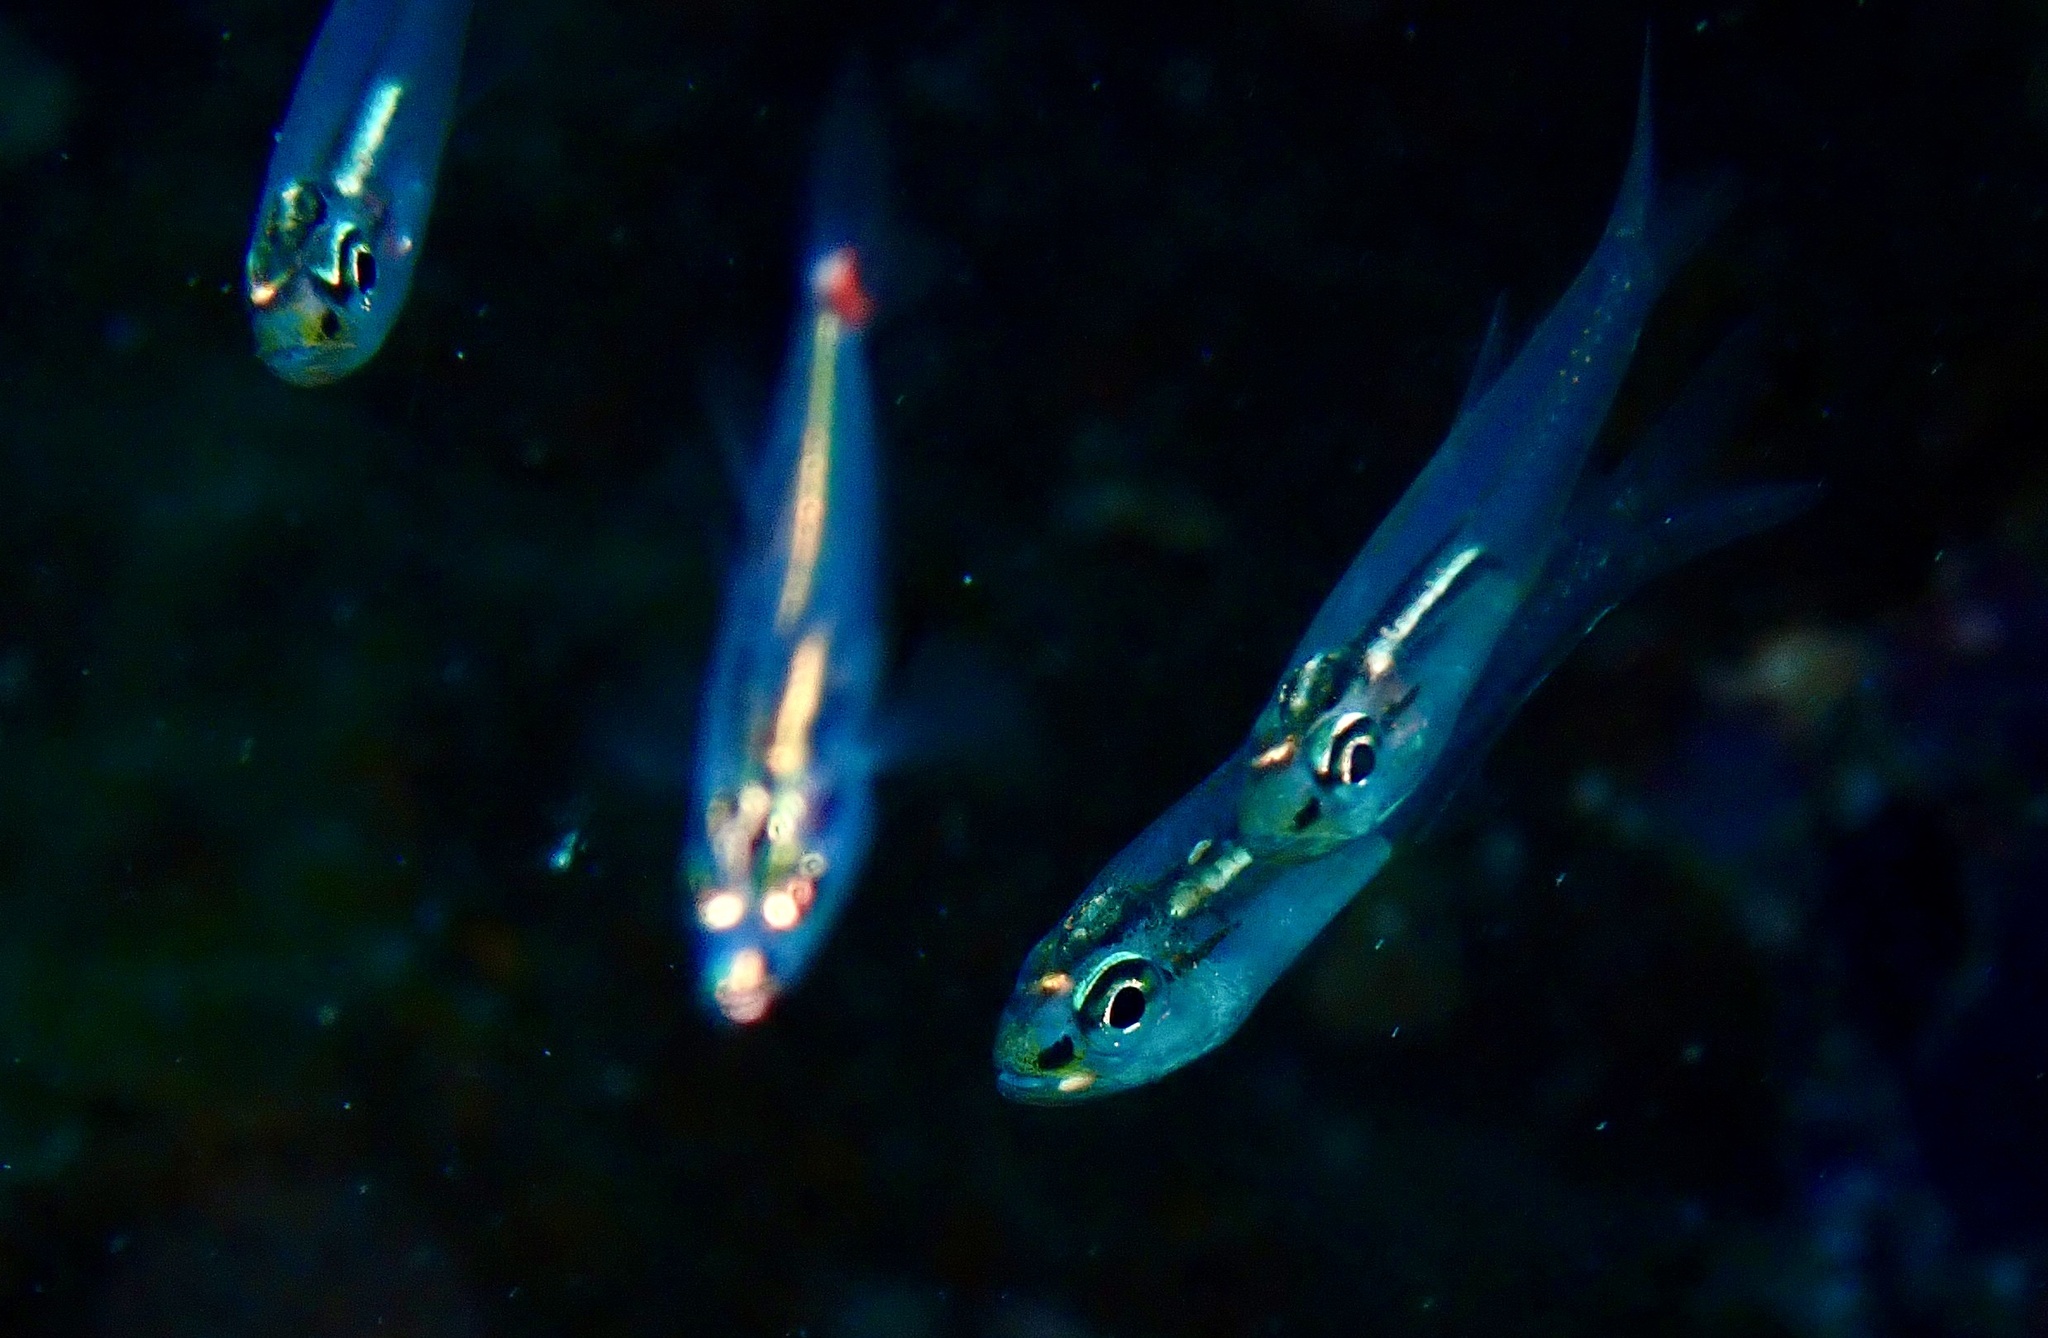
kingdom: Animalia
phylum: Chordata
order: Perciformes
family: Apogonidae
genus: Verulux
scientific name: Verulux cypselurus
